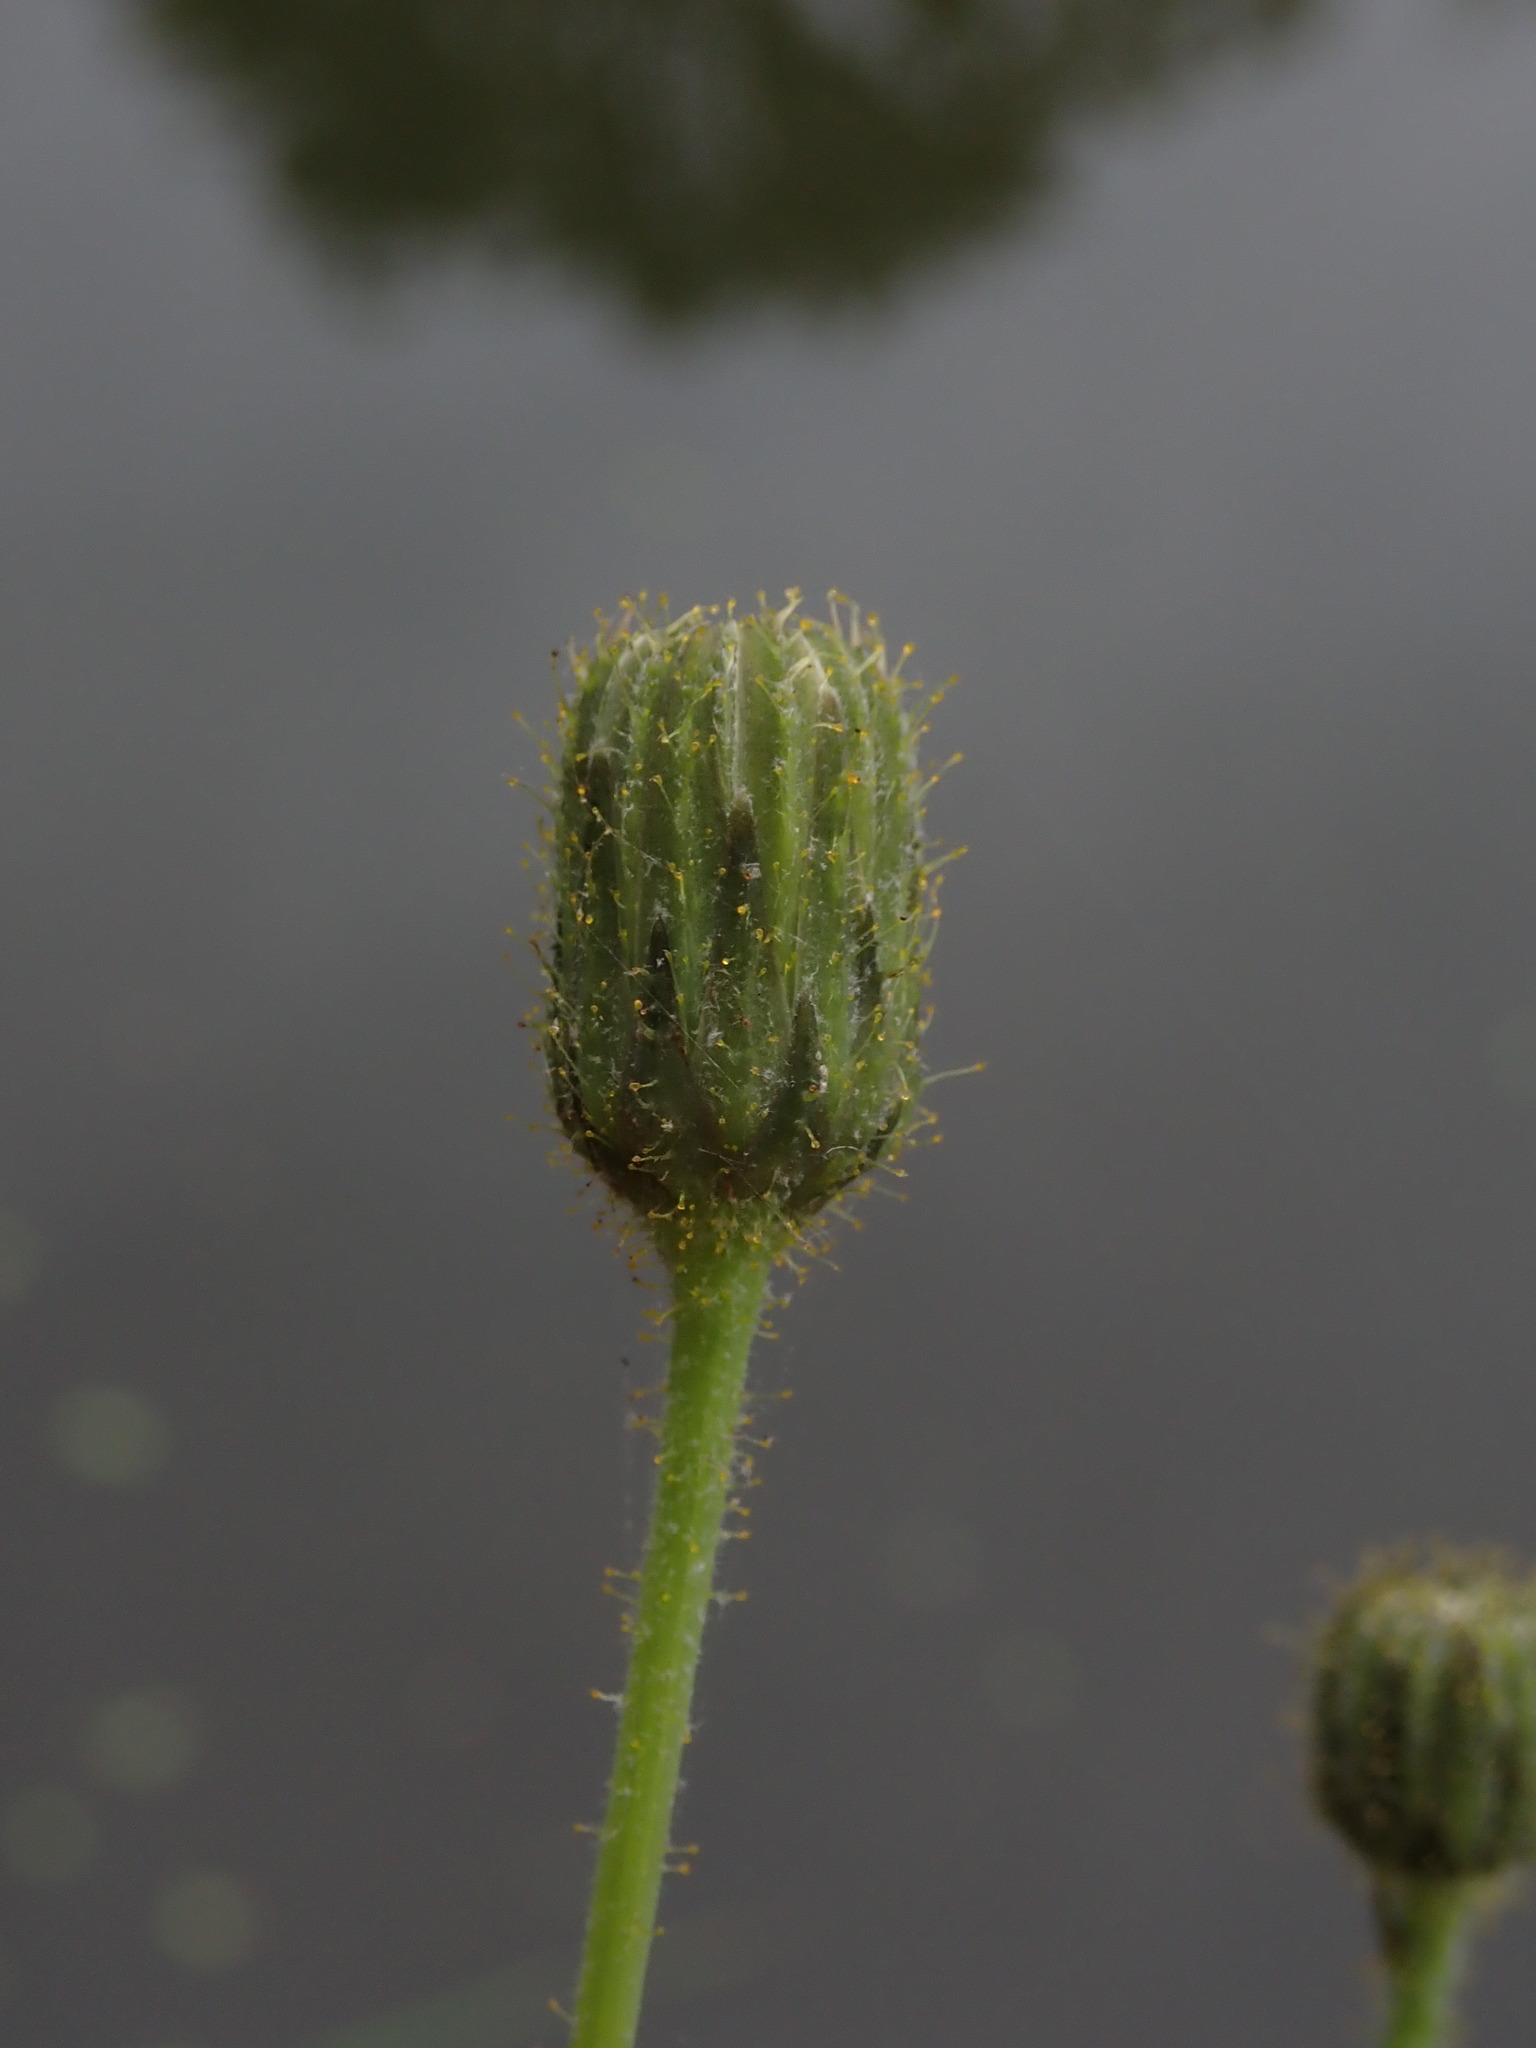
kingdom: Plantae
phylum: Tracheophyta
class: Magnoliopsida
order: Asterales
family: Asteraceae
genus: Sonchus
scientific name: Sonchus arvensis
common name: Perennial sow-thistle
